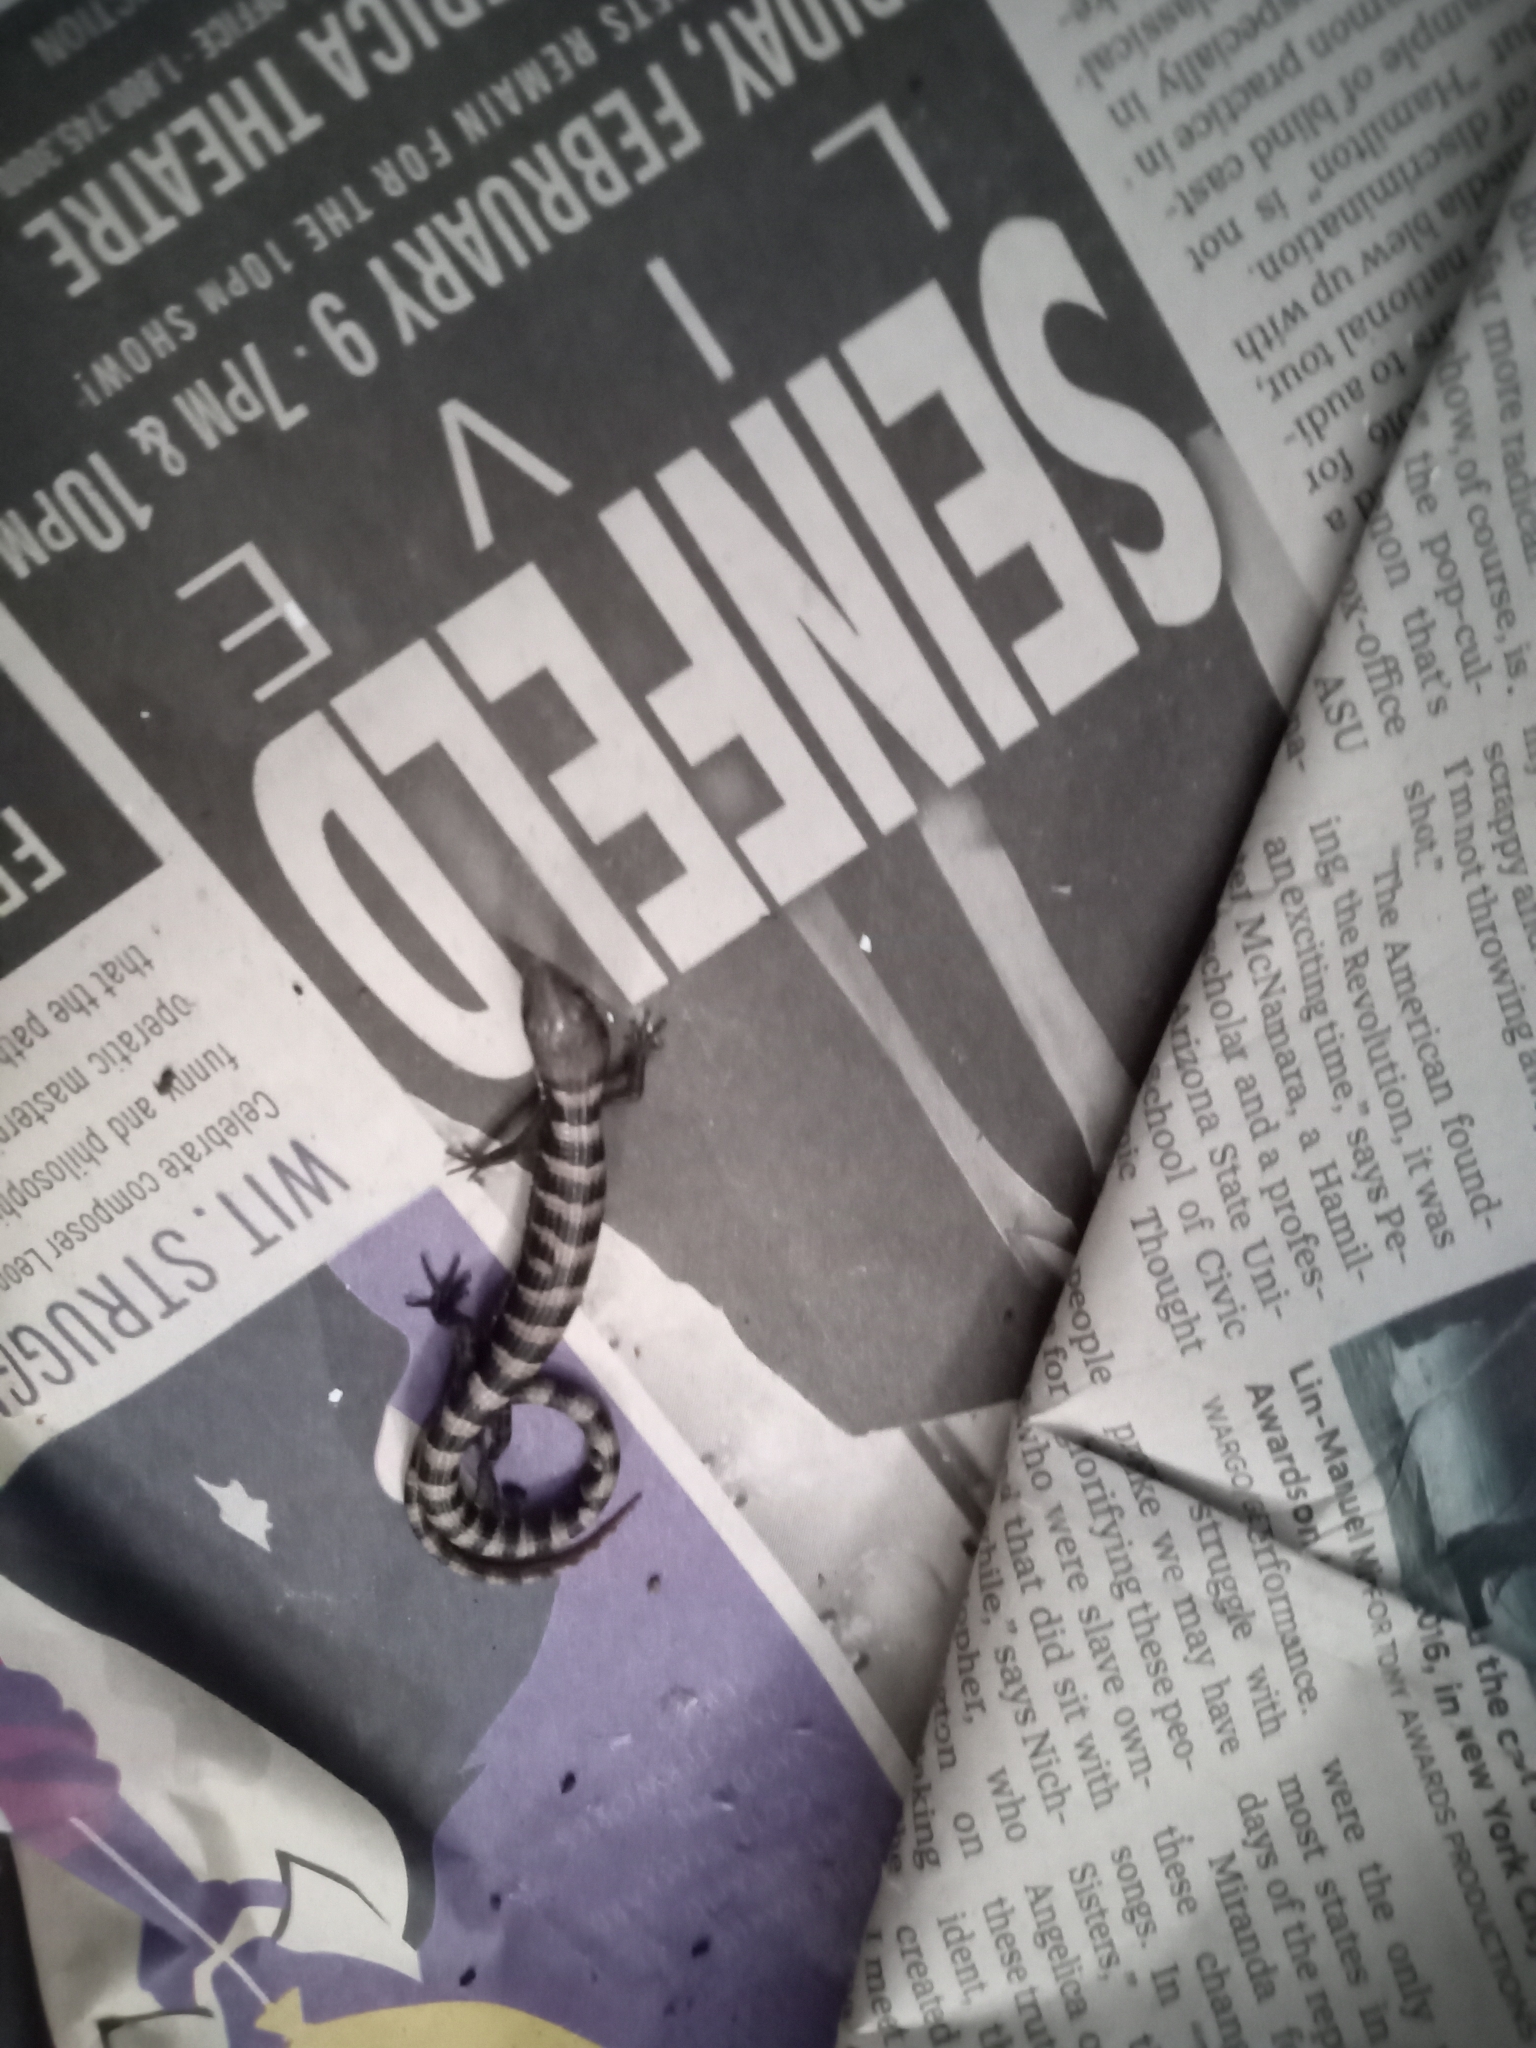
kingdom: Animalia
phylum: Chordata
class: Squamata
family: Anguidae
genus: Elgaria
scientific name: Elgaria kingii
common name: Madrean alligator lizard
